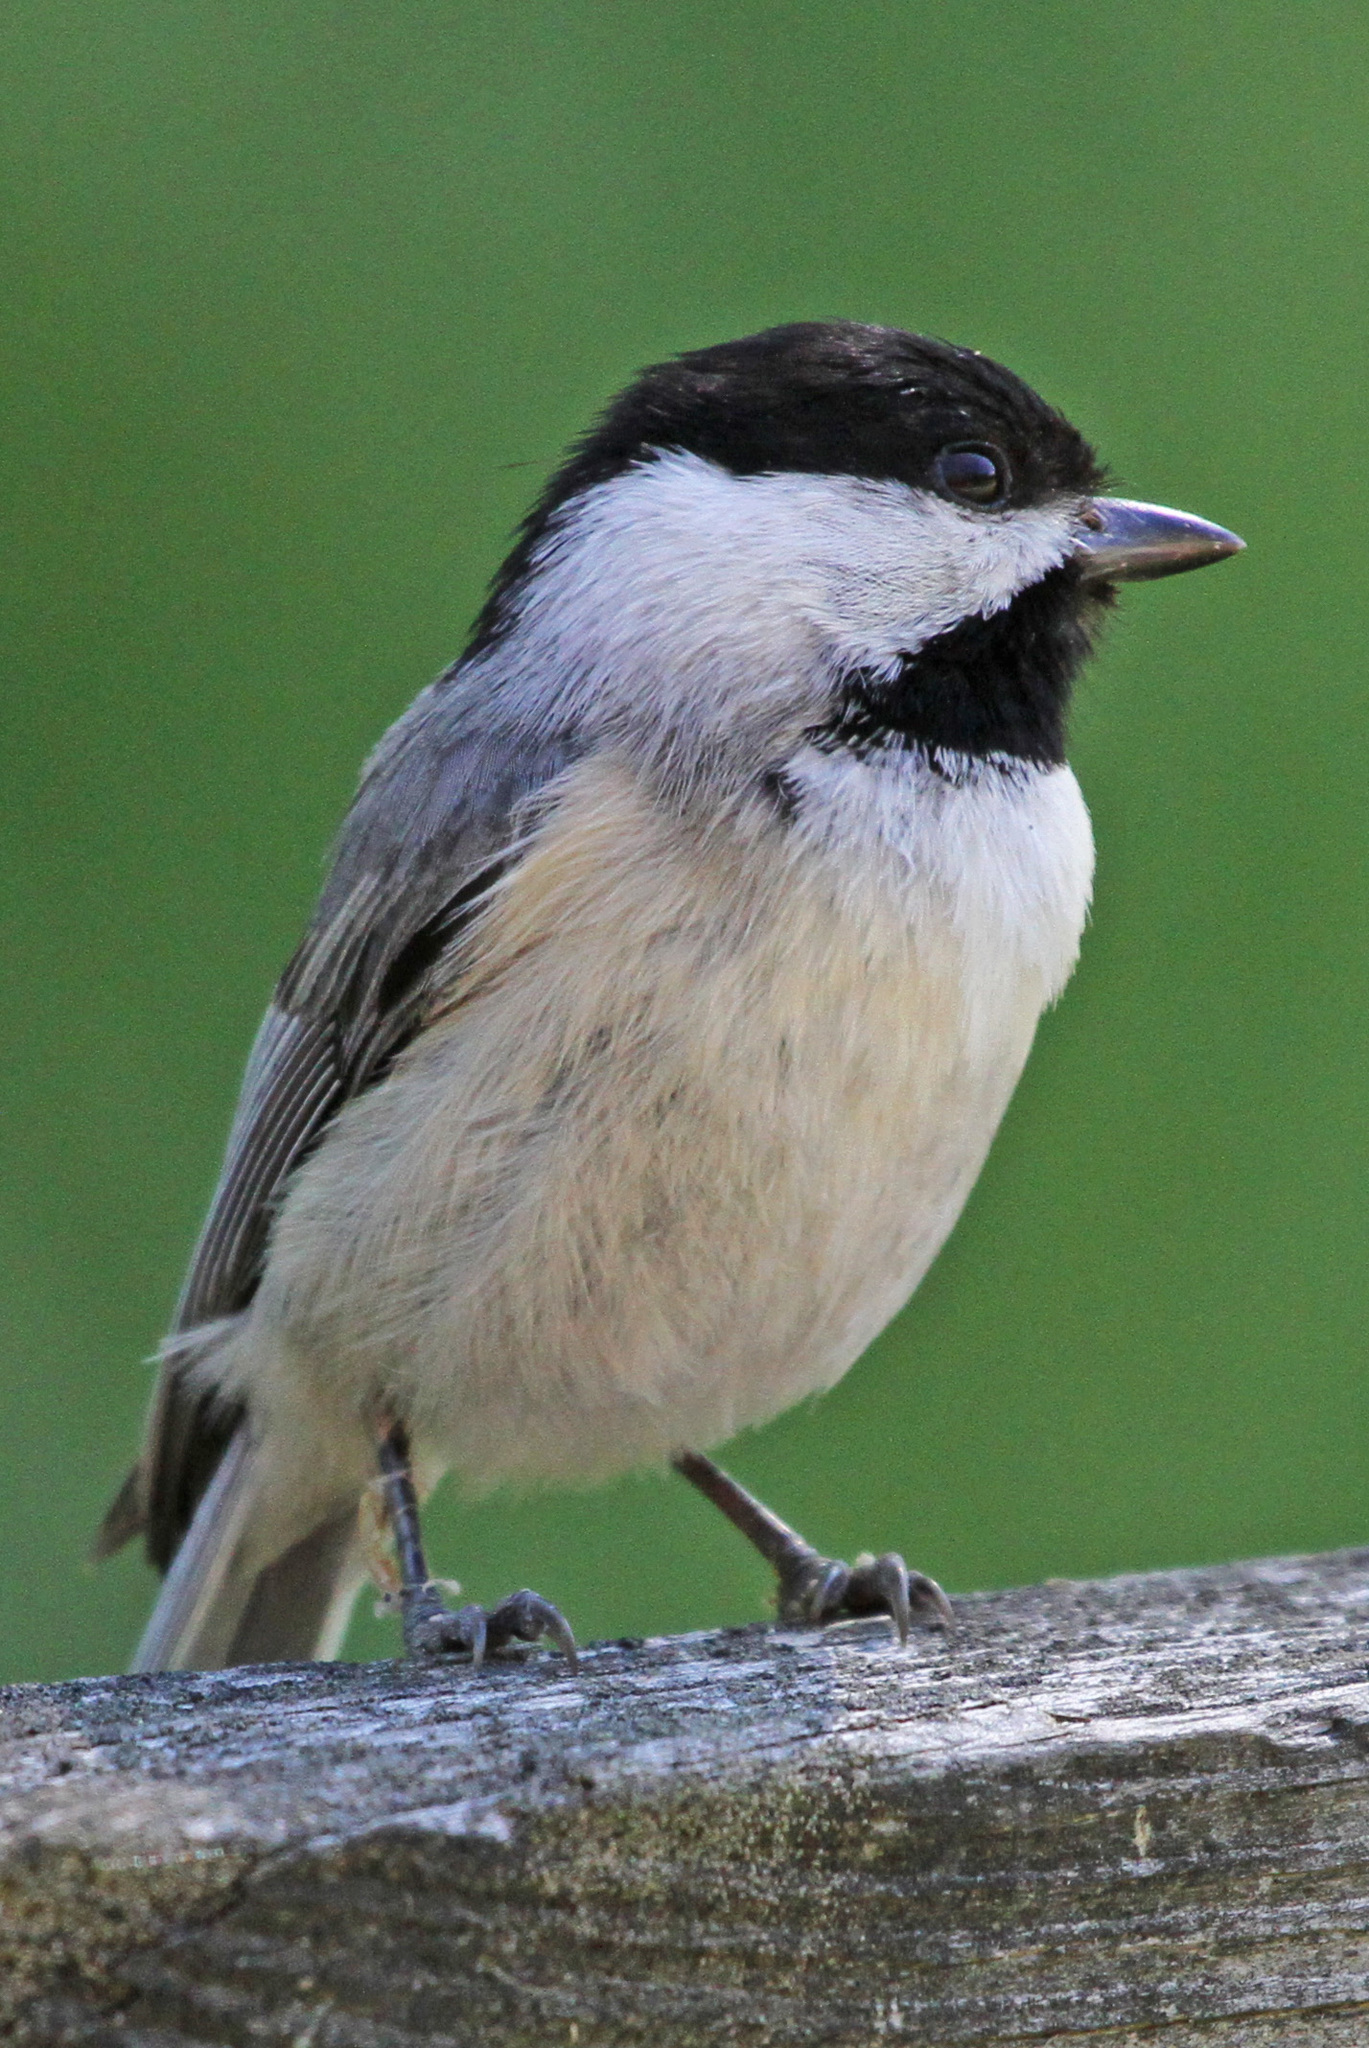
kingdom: Animalia
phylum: Chordata
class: Aves
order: Passeriformes
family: Paridae
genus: Poecile
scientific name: Poecile carolinensis
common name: Carolina chickadee
